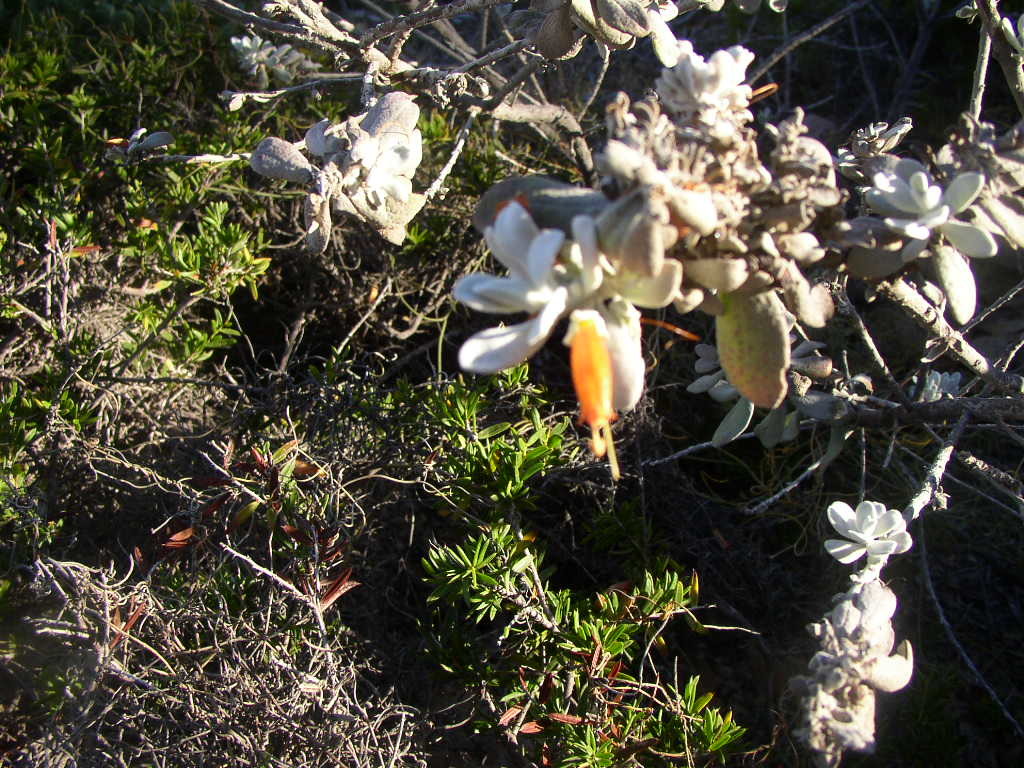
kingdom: Plantae
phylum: Tracheophyta
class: Magnoliopsida
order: Lamiales
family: Scrophulariaceae
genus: Eremophila
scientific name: Eremophila glabra
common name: Black-fuchsia
